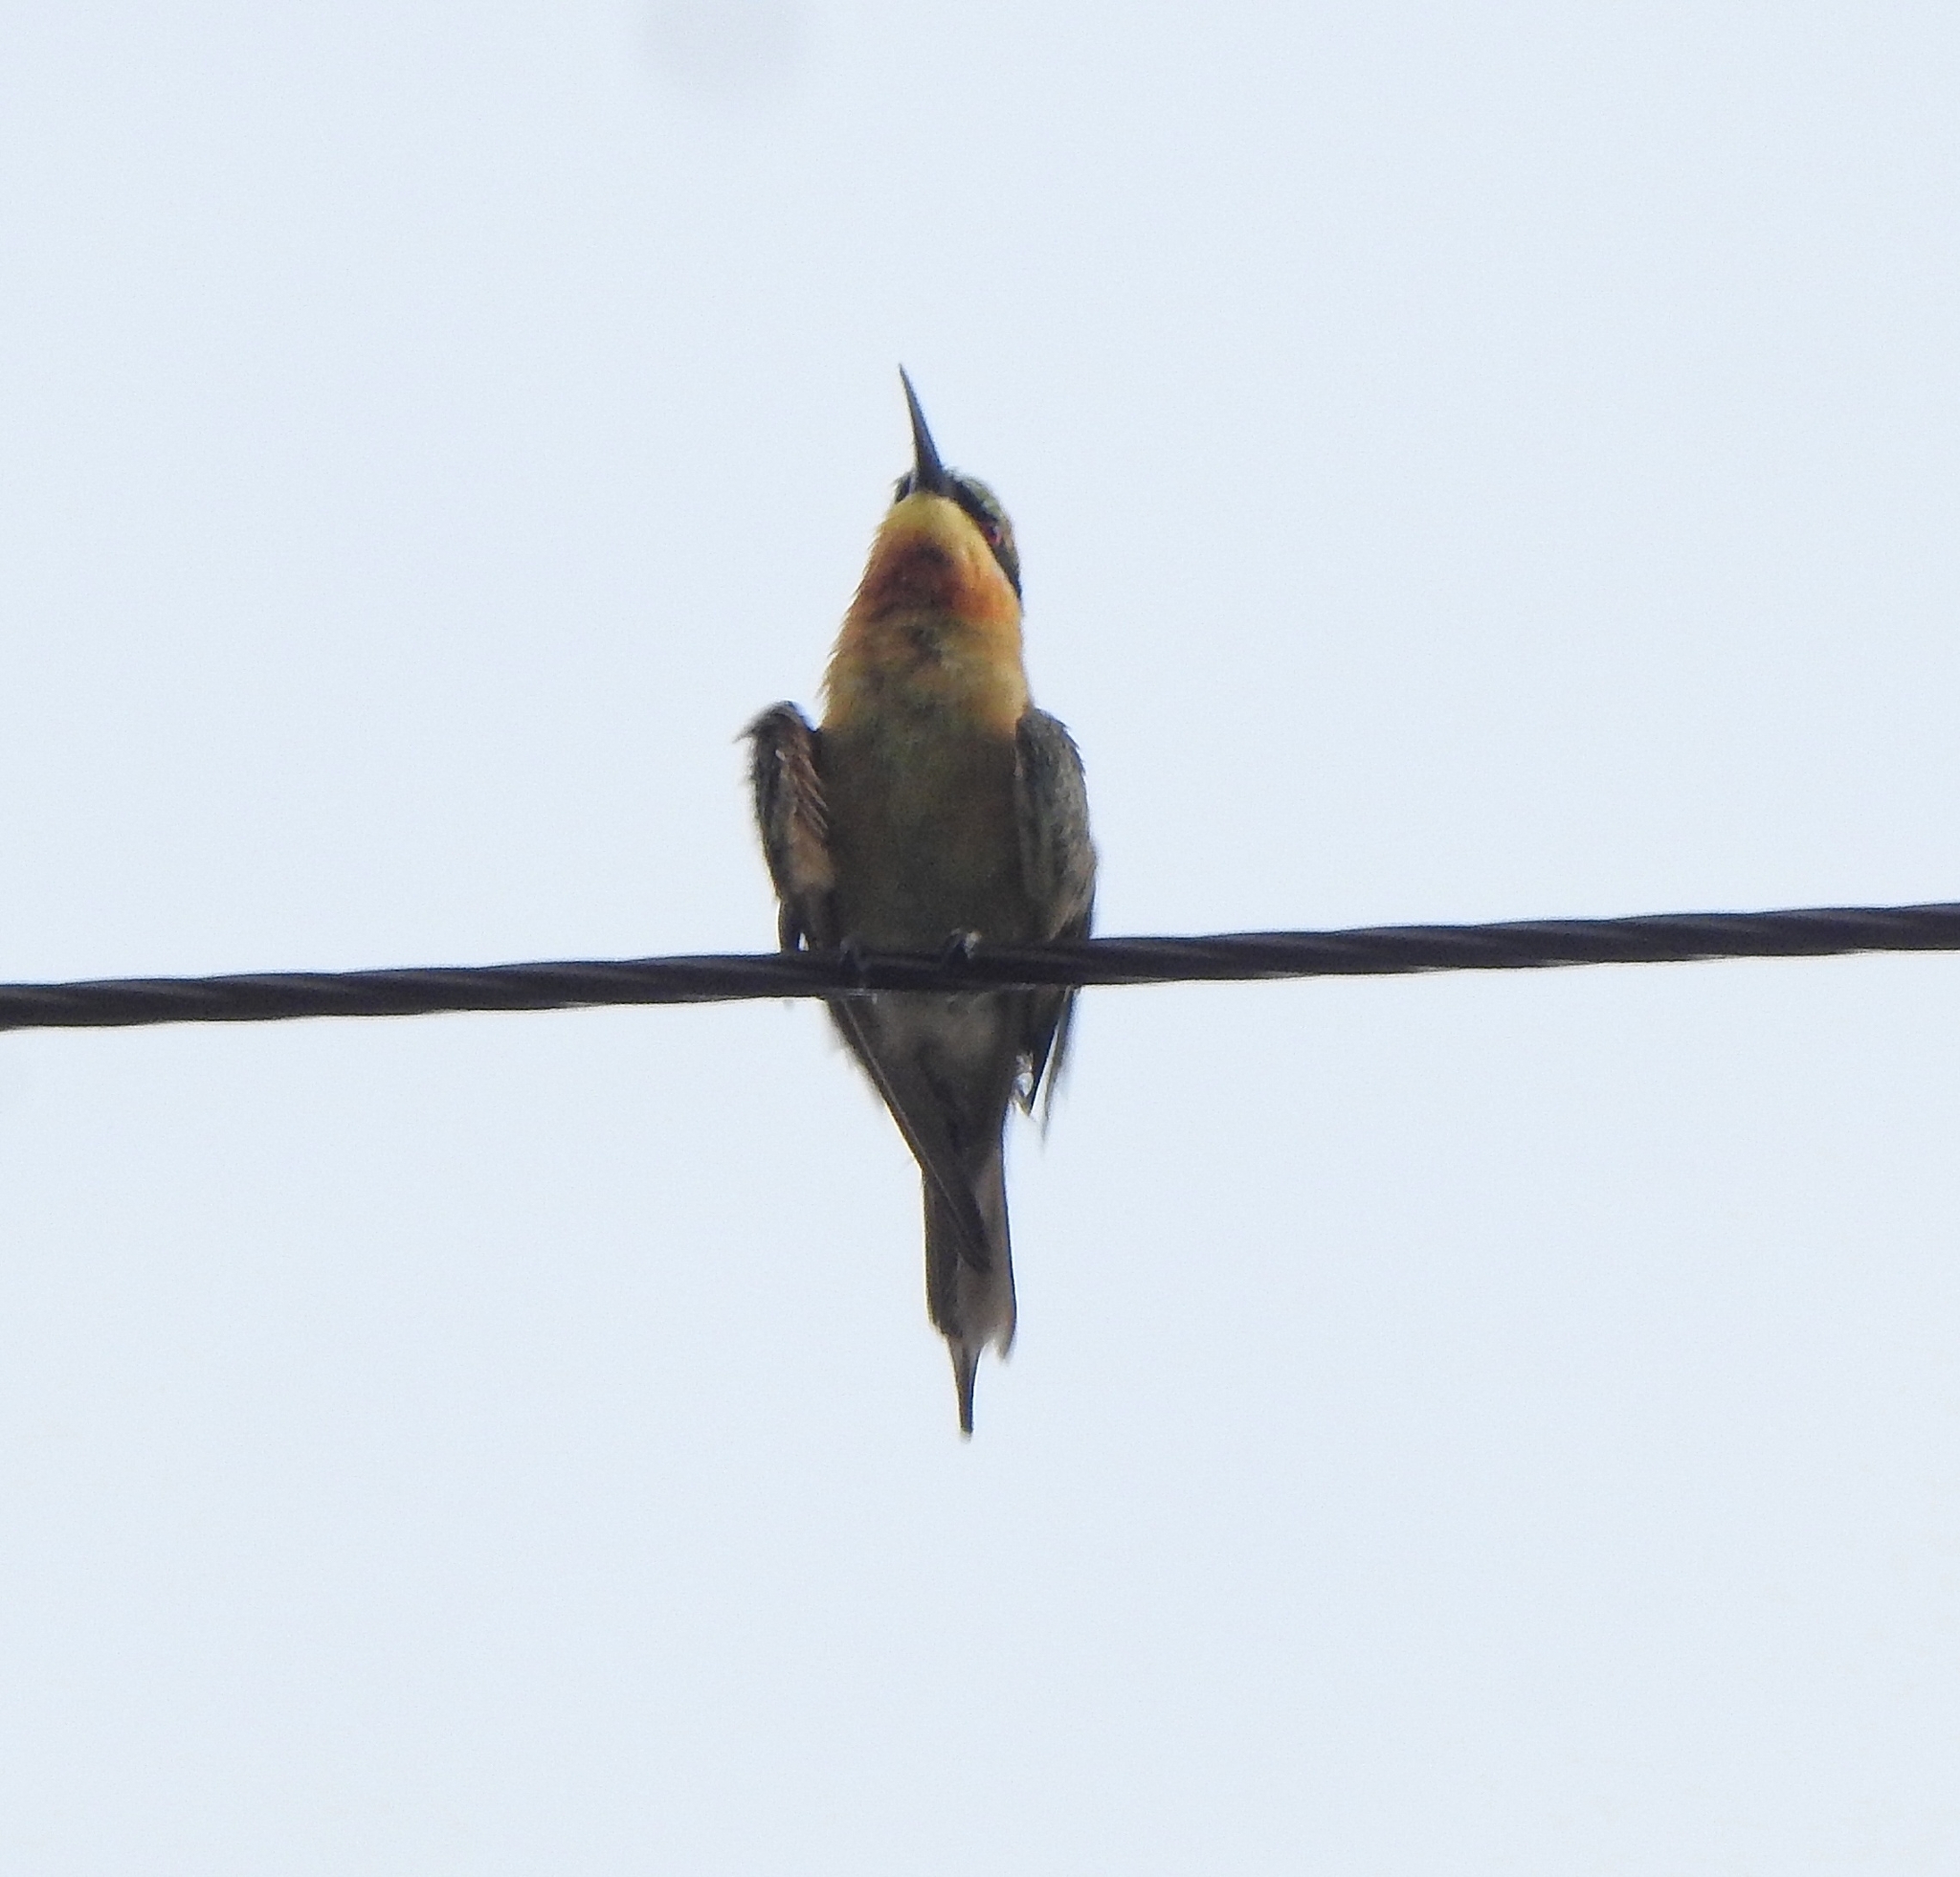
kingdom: Animalia
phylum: Chordata
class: Aves
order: Coraciiformes
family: Meropidae
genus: Merops
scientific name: Merops philippinus
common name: Blue-tailed bee-eater
